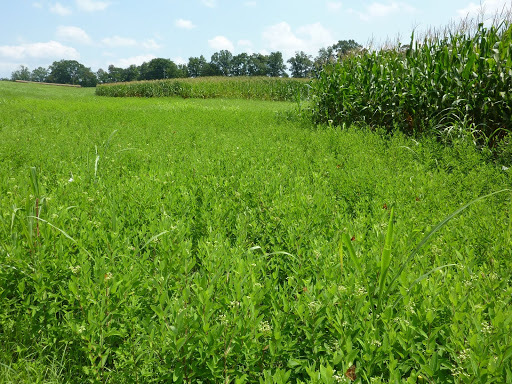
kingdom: Animalia
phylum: Arthropoda
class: Insecta
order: Lepidoptera
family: Nymphalidae
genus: Euptoieta
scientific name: Euptoieta claudia
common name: Variegated fritillary
